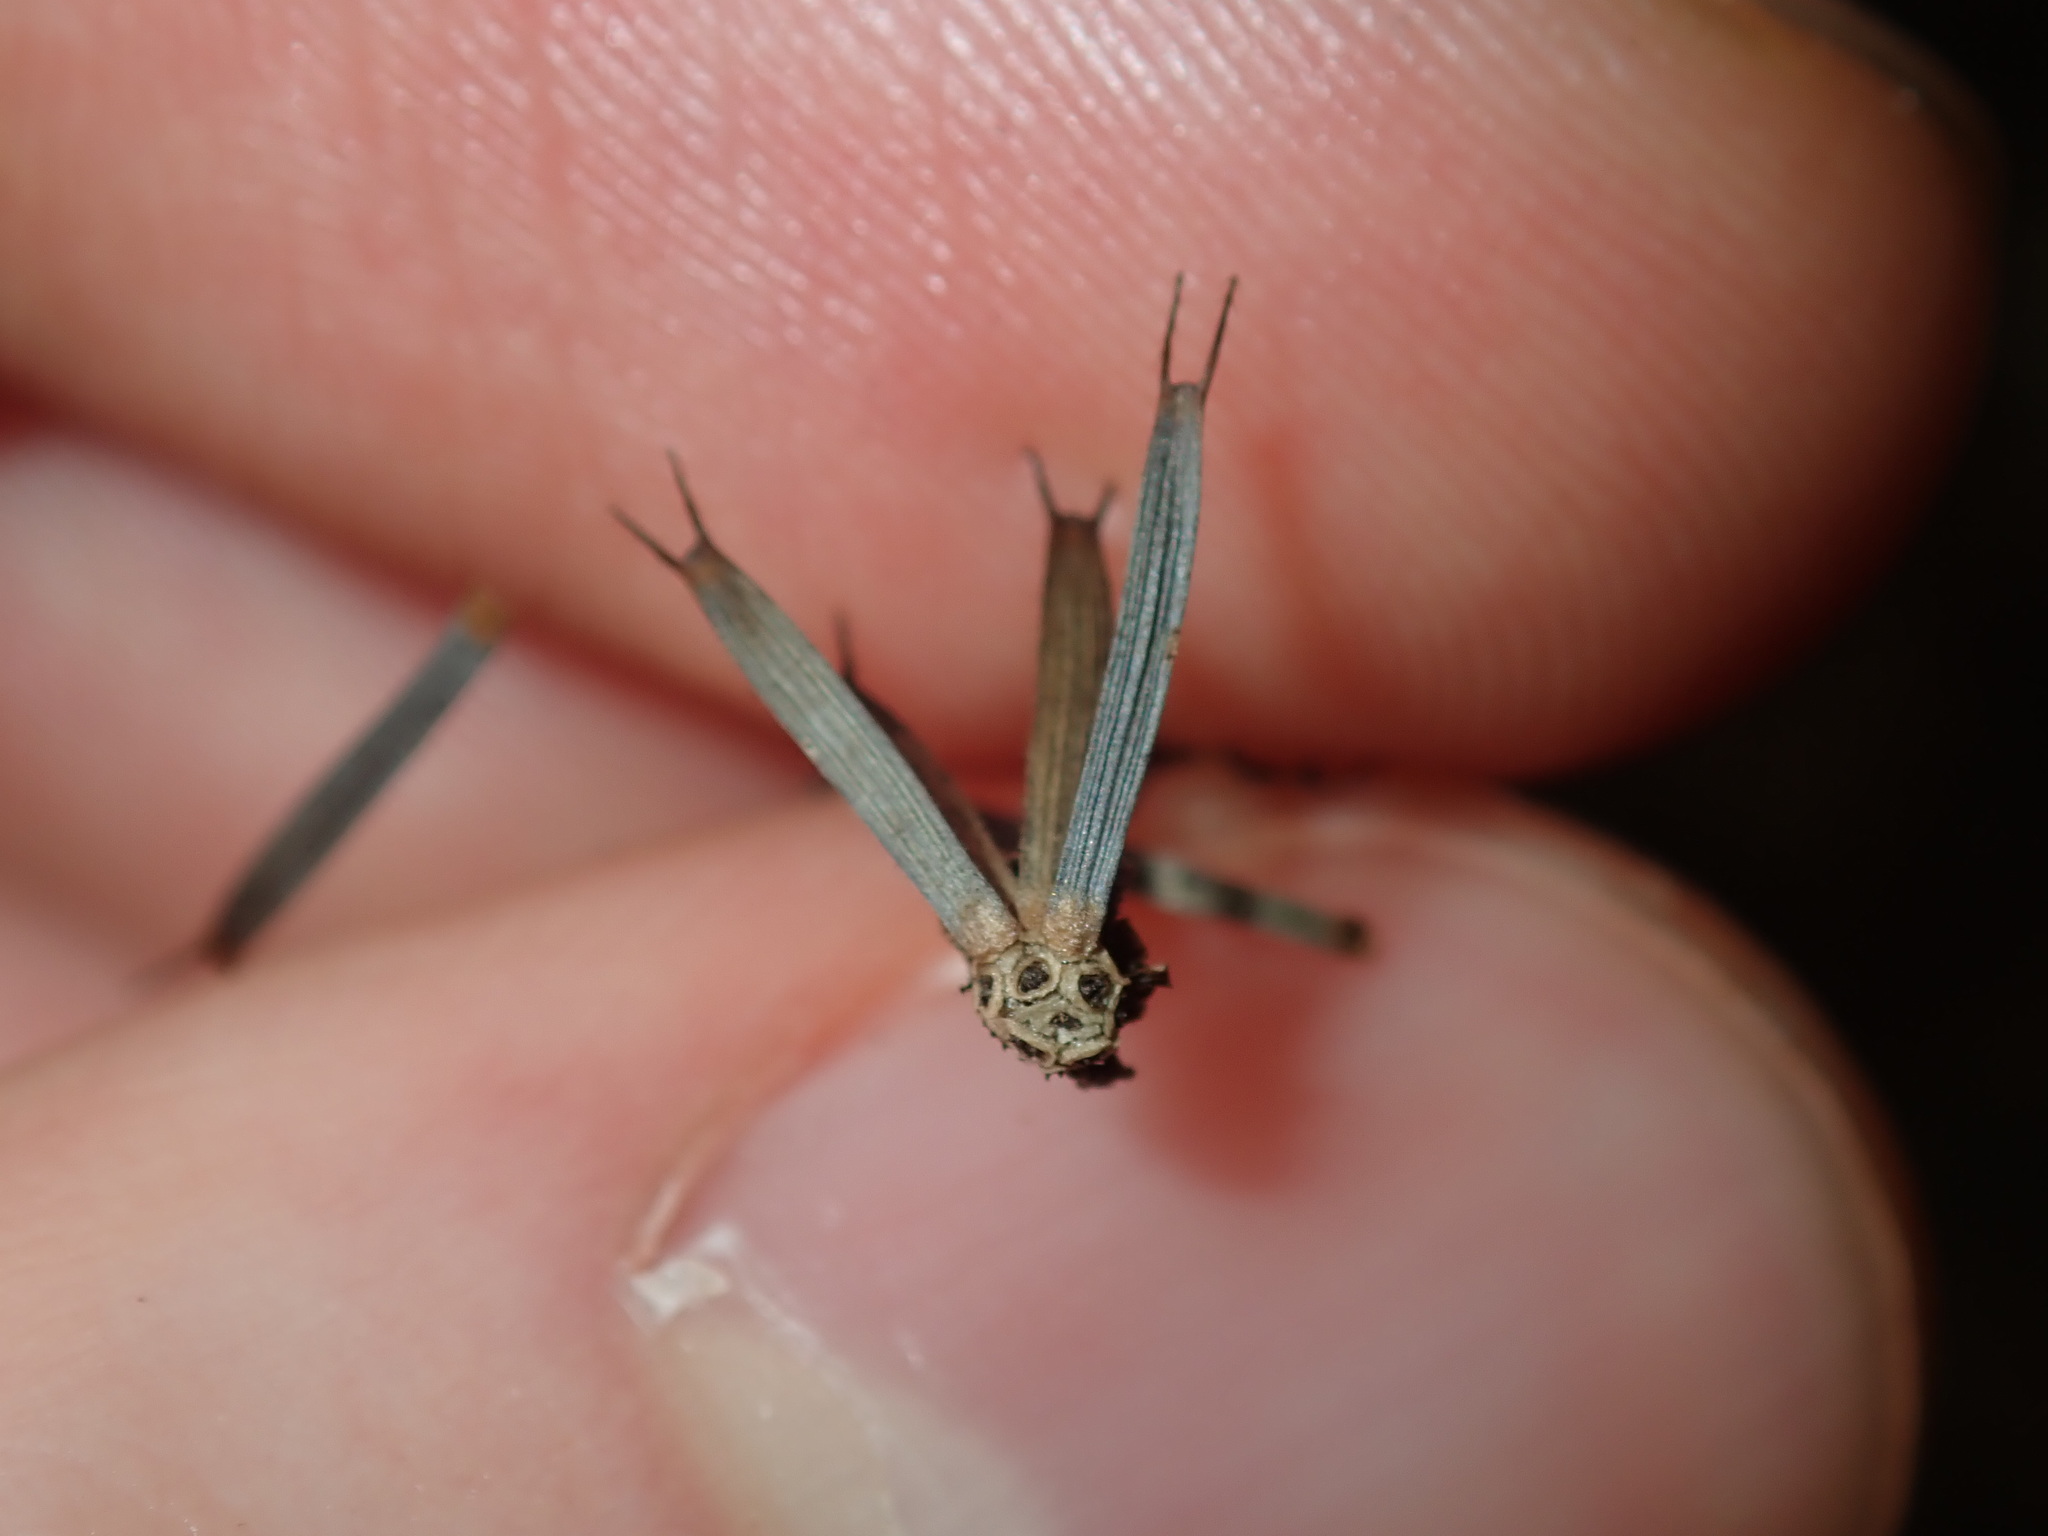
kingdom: Plantae
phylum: Tracheophyta
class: Magnoliopsida
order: Asterales
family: Asteraceae
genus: Glossocardia
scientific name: Glossocardia bidens
